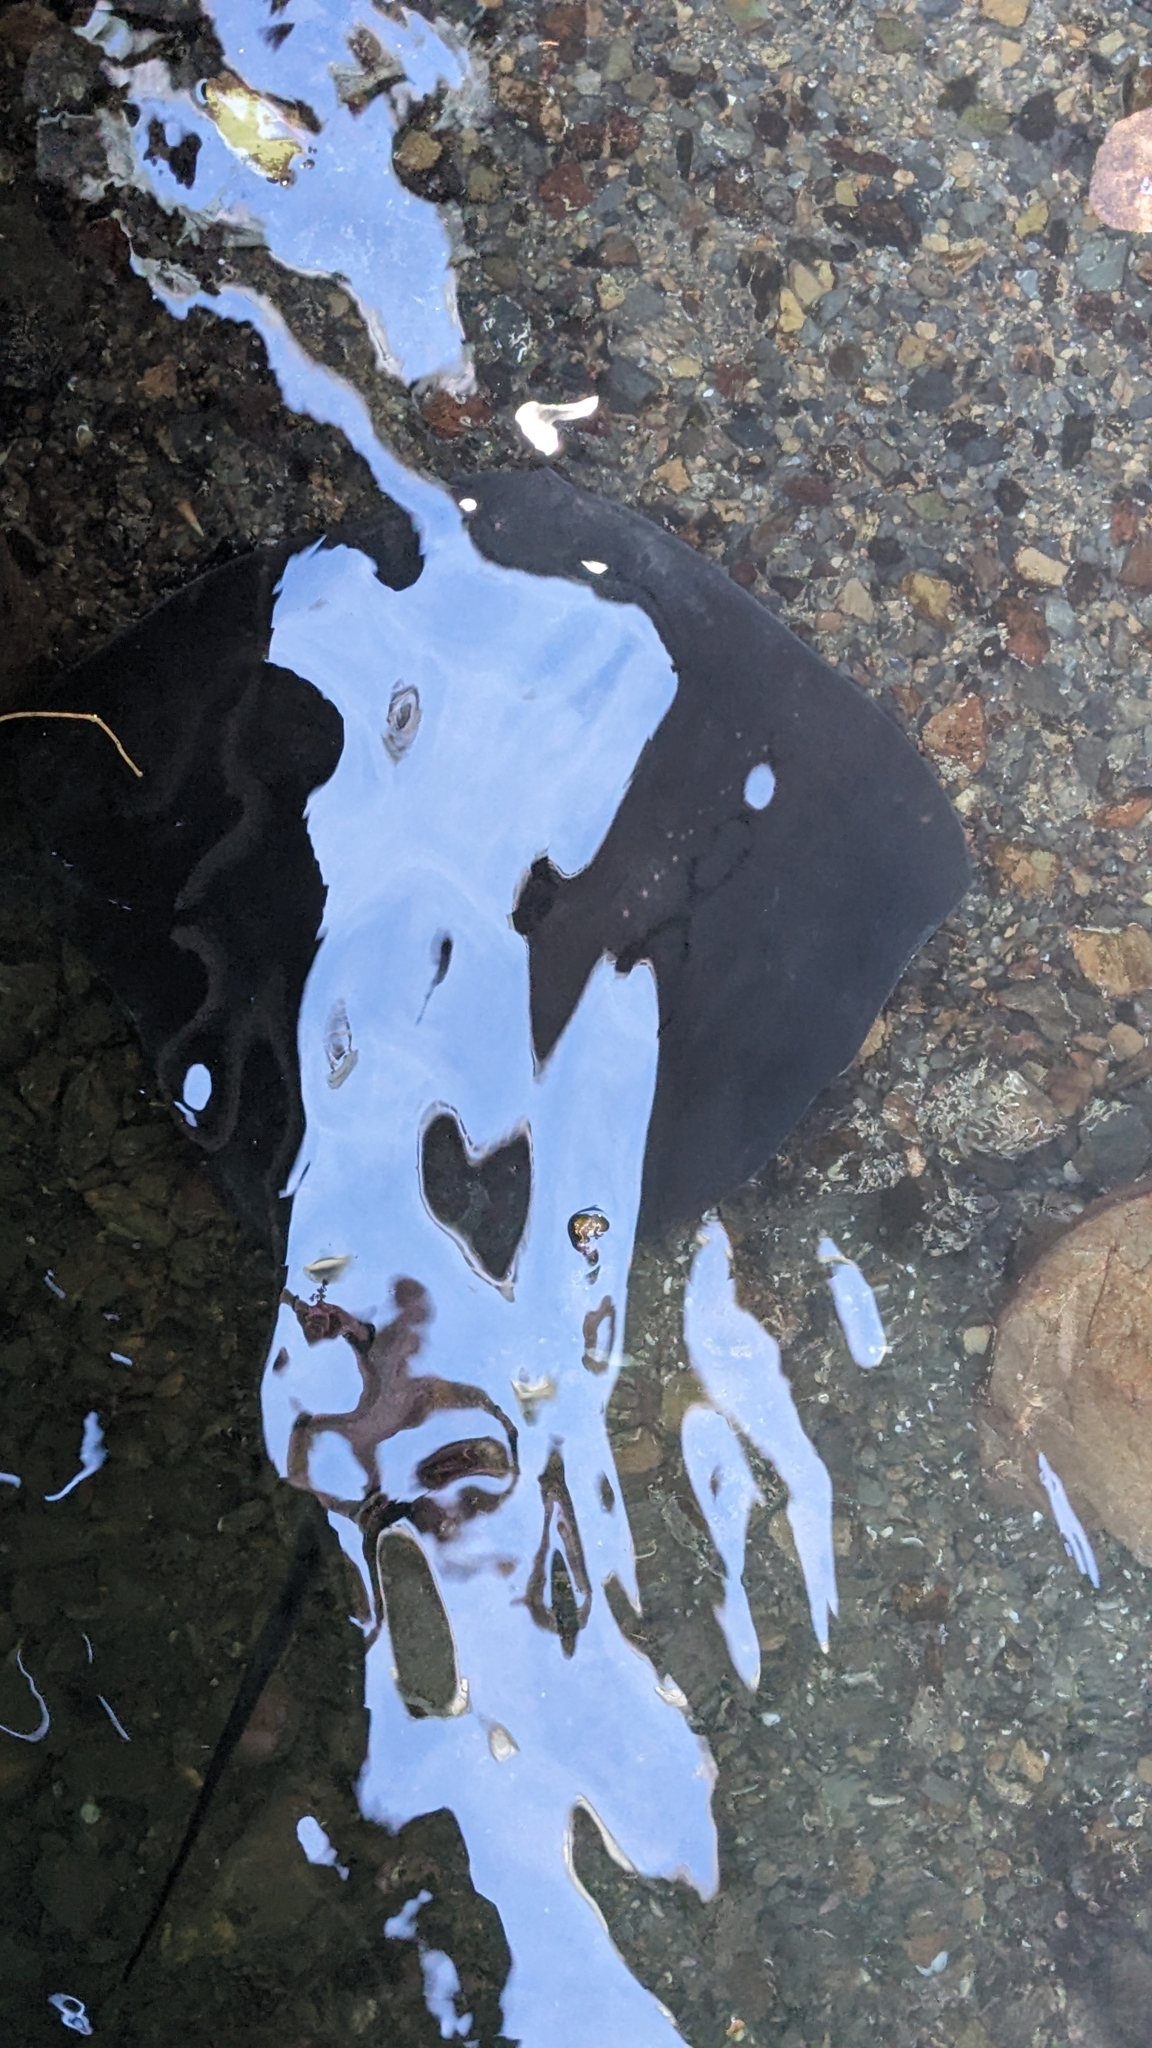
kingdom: Animalia
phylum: Chordata
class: Elasmobranchii
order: Myliobatiformes
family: Dasyatidae
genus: Bathytoshia
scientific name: Bathytoshia brevicaudata
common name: Short-tail stingray
